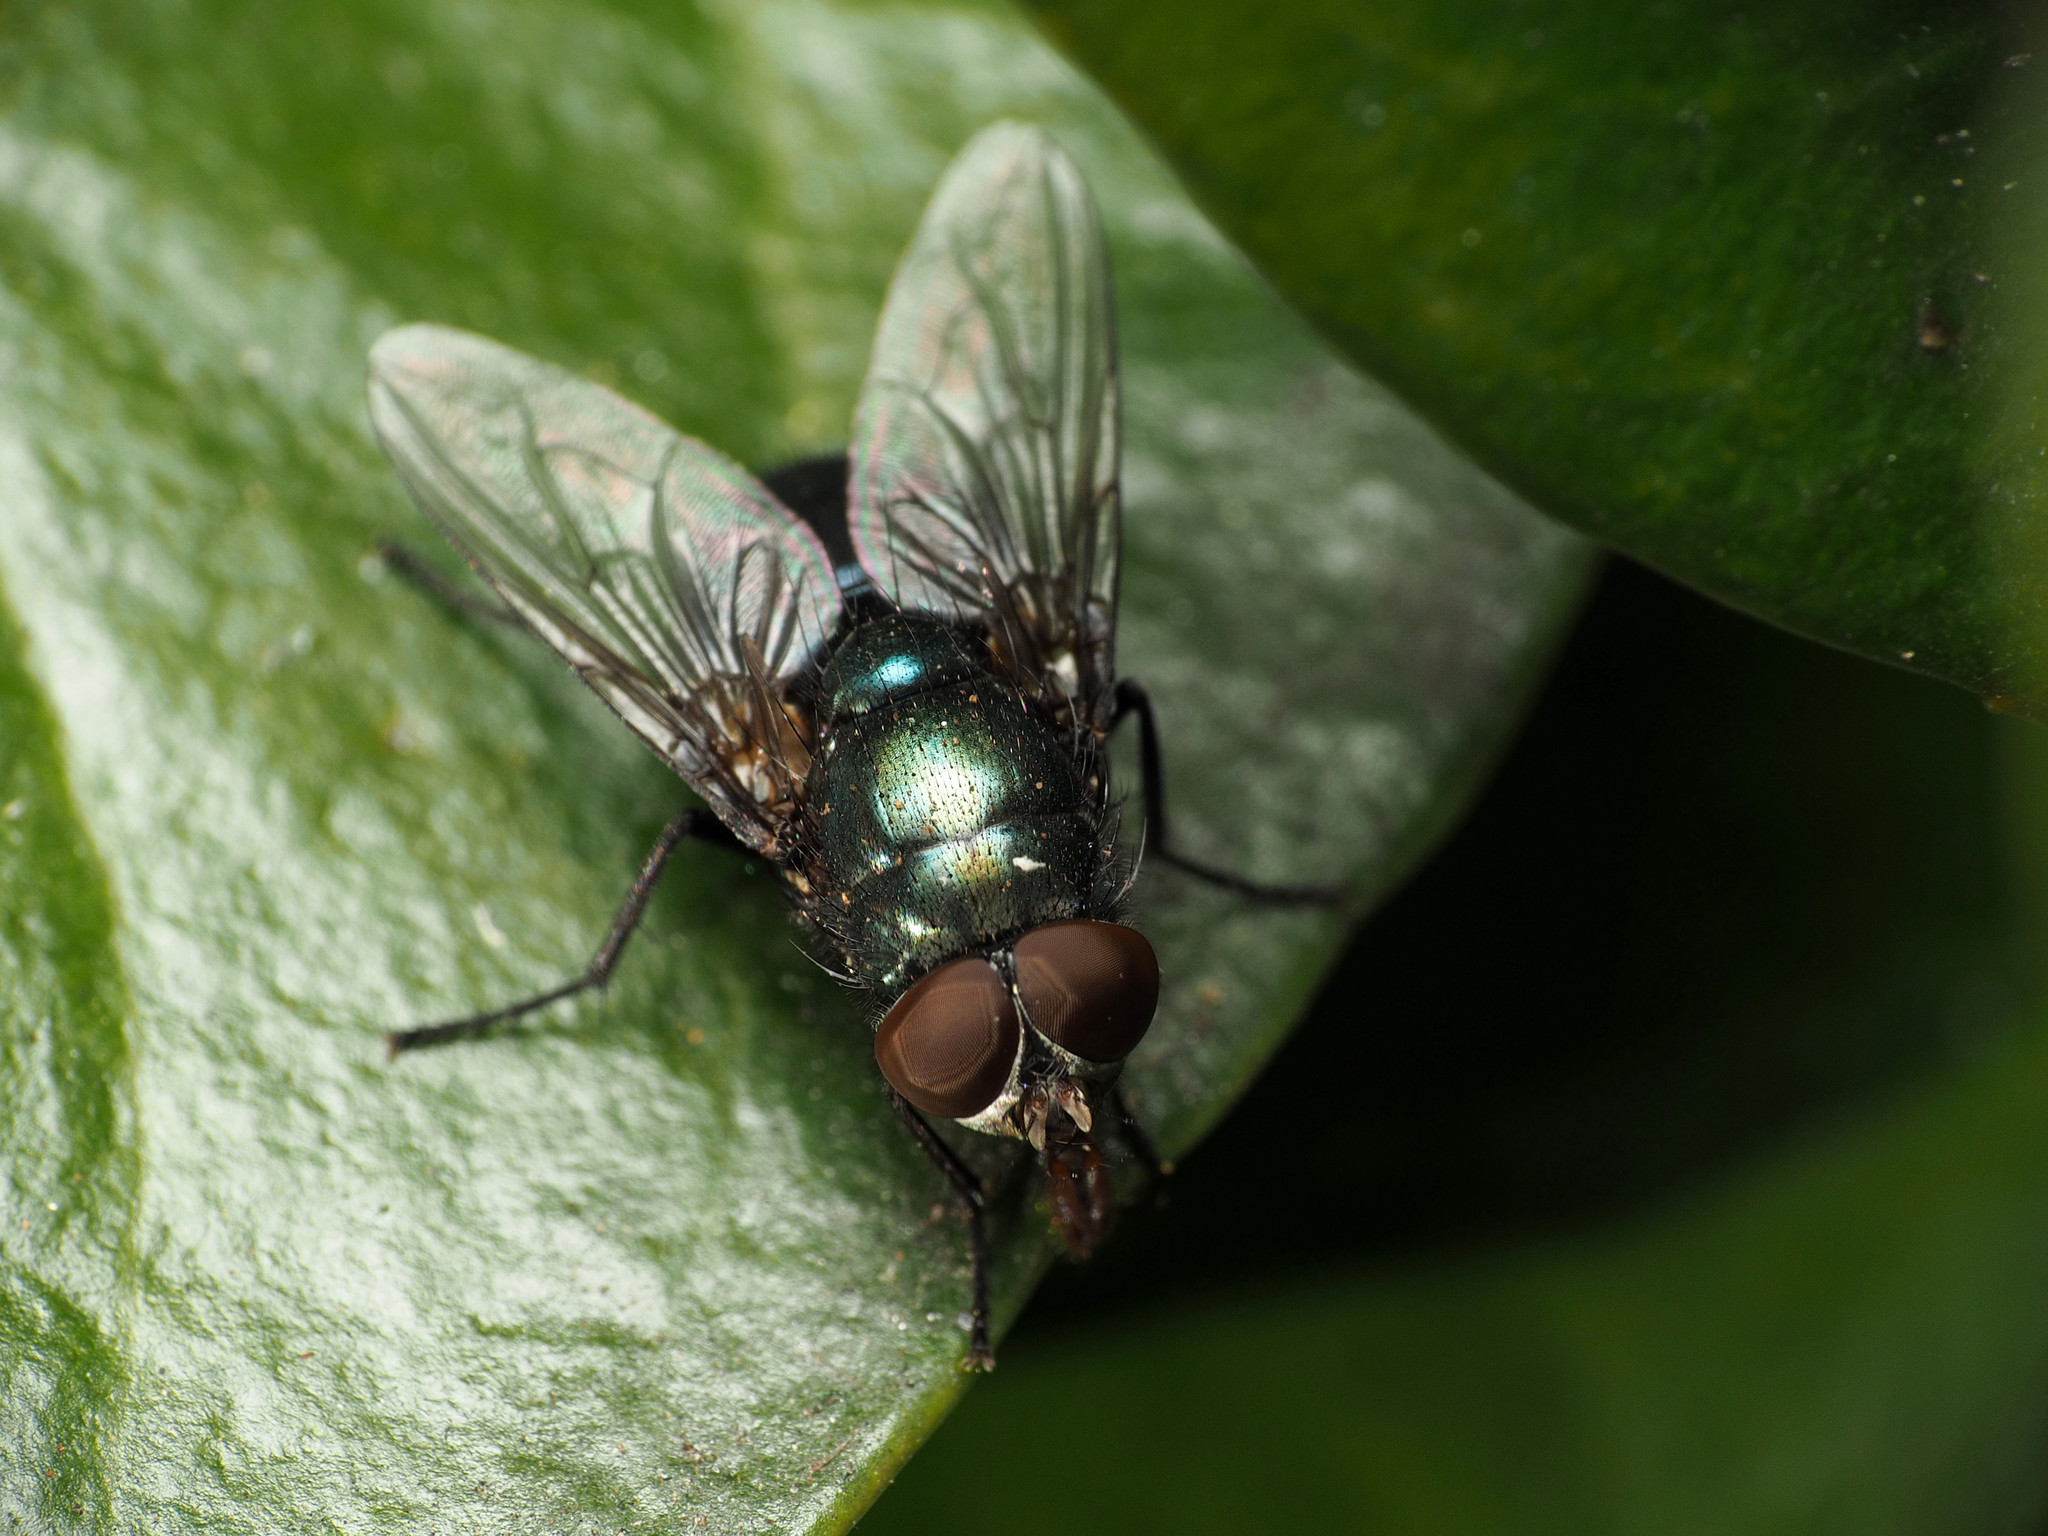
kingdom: Animalia
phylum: Arthropoda
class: Insecta
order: Diptera
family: Calliphoridae
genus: Phormia
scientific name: Phormia regina
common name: Black blow fly
